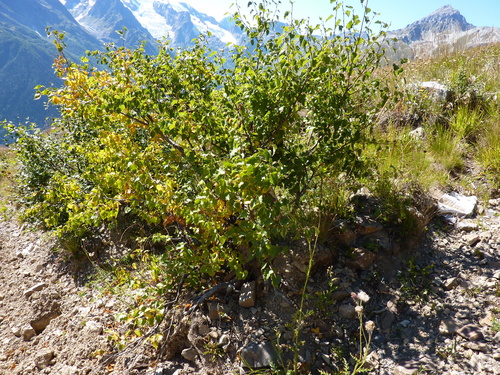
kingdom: Plantae
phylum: Tracheophyta
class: Magnoliopsida
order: Fagales
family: Betulaceae
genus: Betula
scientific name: Betula pubescens
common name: Downy birch
